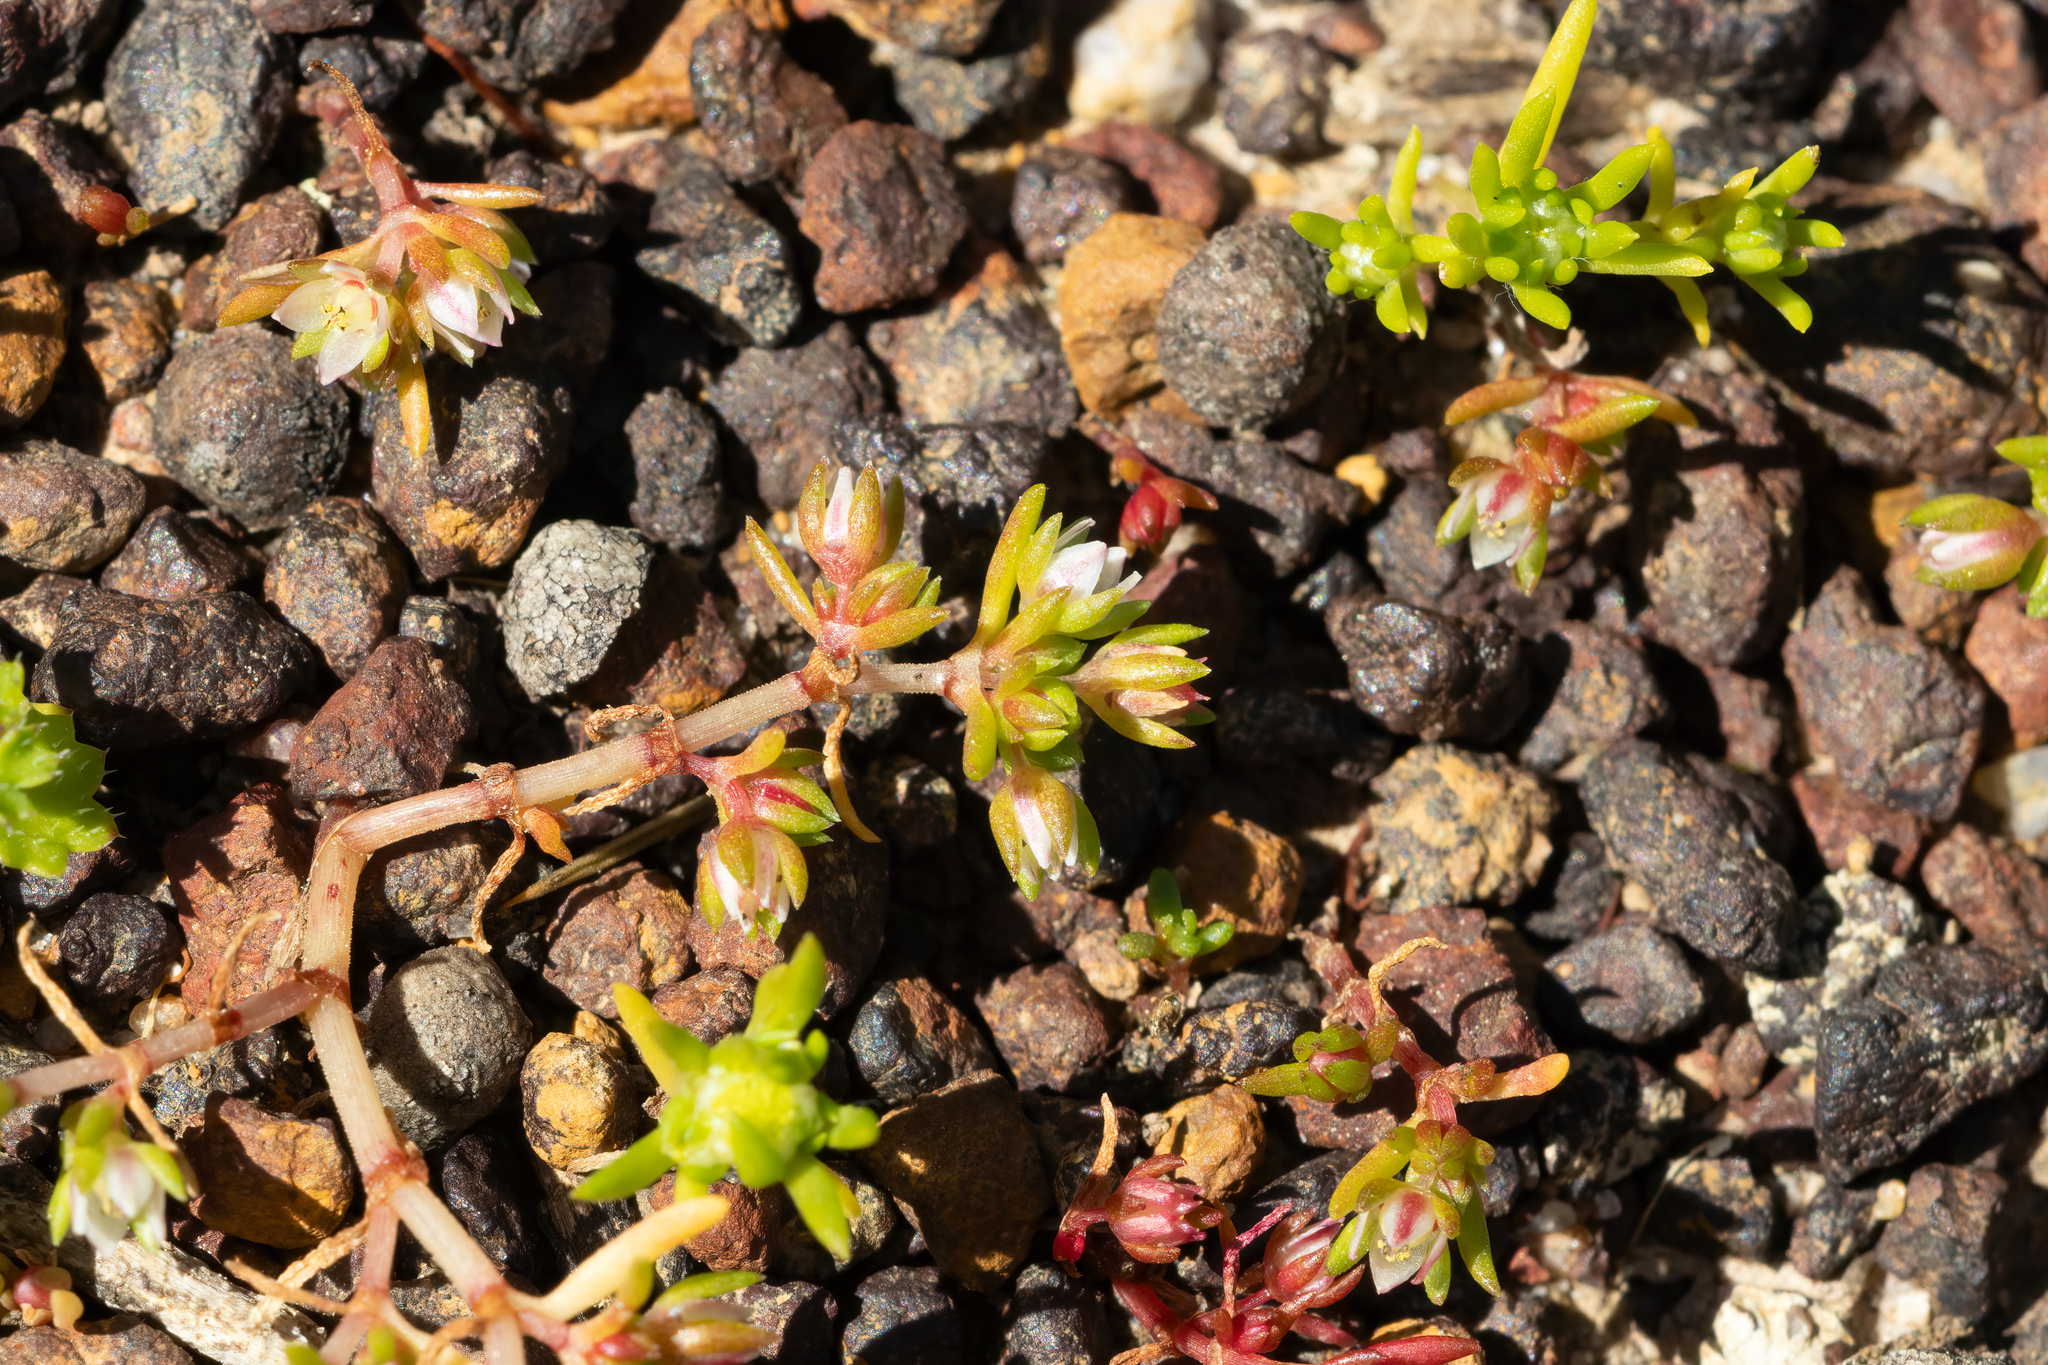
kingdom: Plantae
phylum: Tracheophyta
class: Magnoliopsida
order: Saxifragales
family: Crassulaceae
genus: Crassula
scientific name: Crassula decumbens
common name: Scilly pigmyweed
